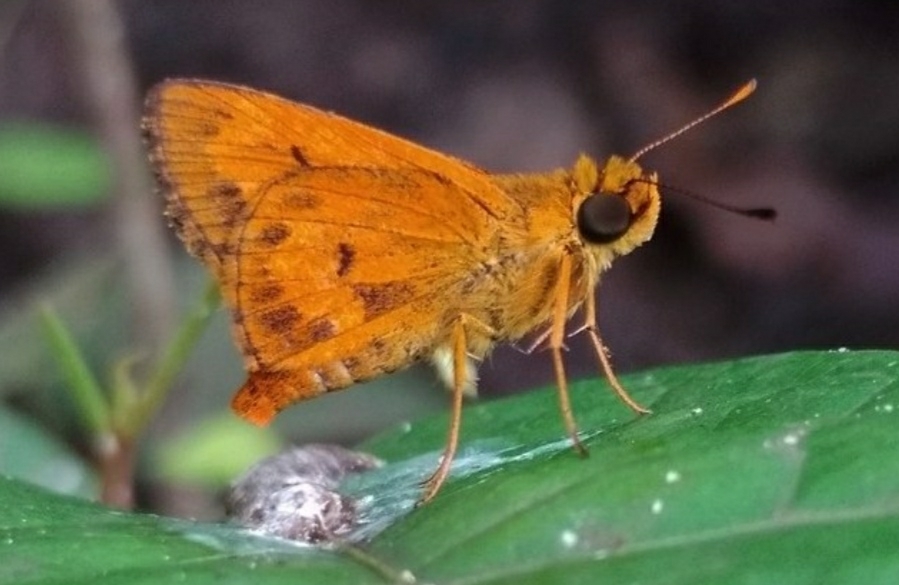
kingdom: Animalia
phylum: Arthropoda
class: Insecta
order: Lepidoptera
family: Hesperiidae
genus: Oriens
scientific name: Oriens goloides
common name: Smaller dartlet
